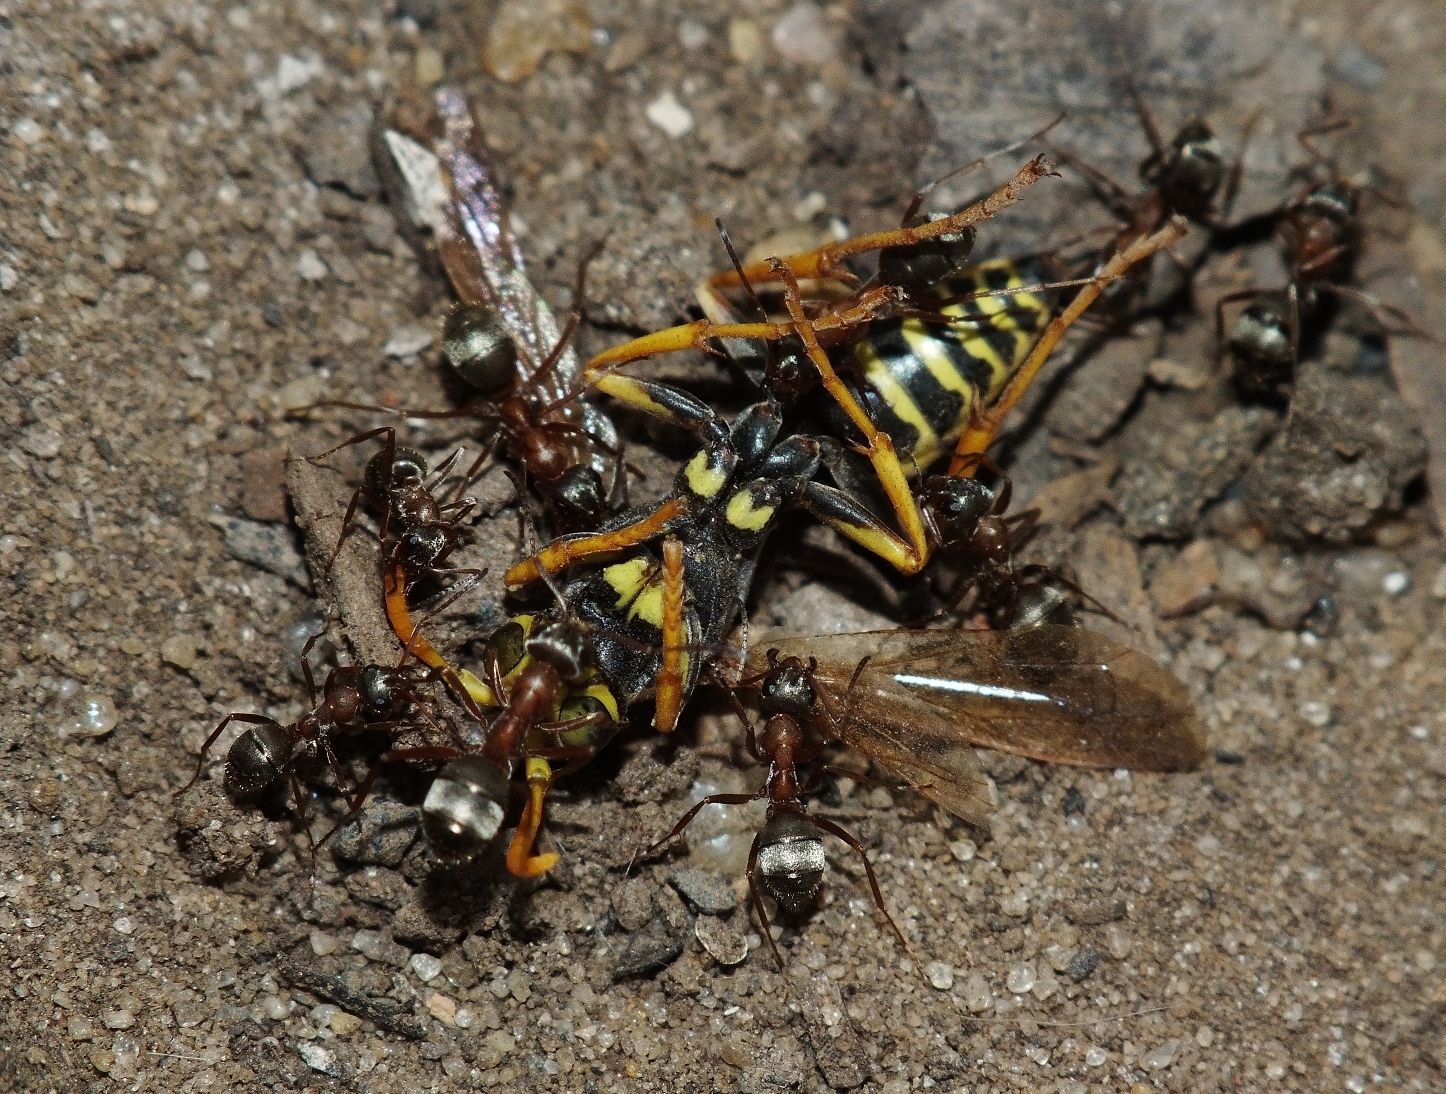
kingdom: Animalia
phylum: Arthropoda
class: Insecta
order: Hymenoptera
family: Formicidae
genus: Formica
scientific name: Formica cinerea
